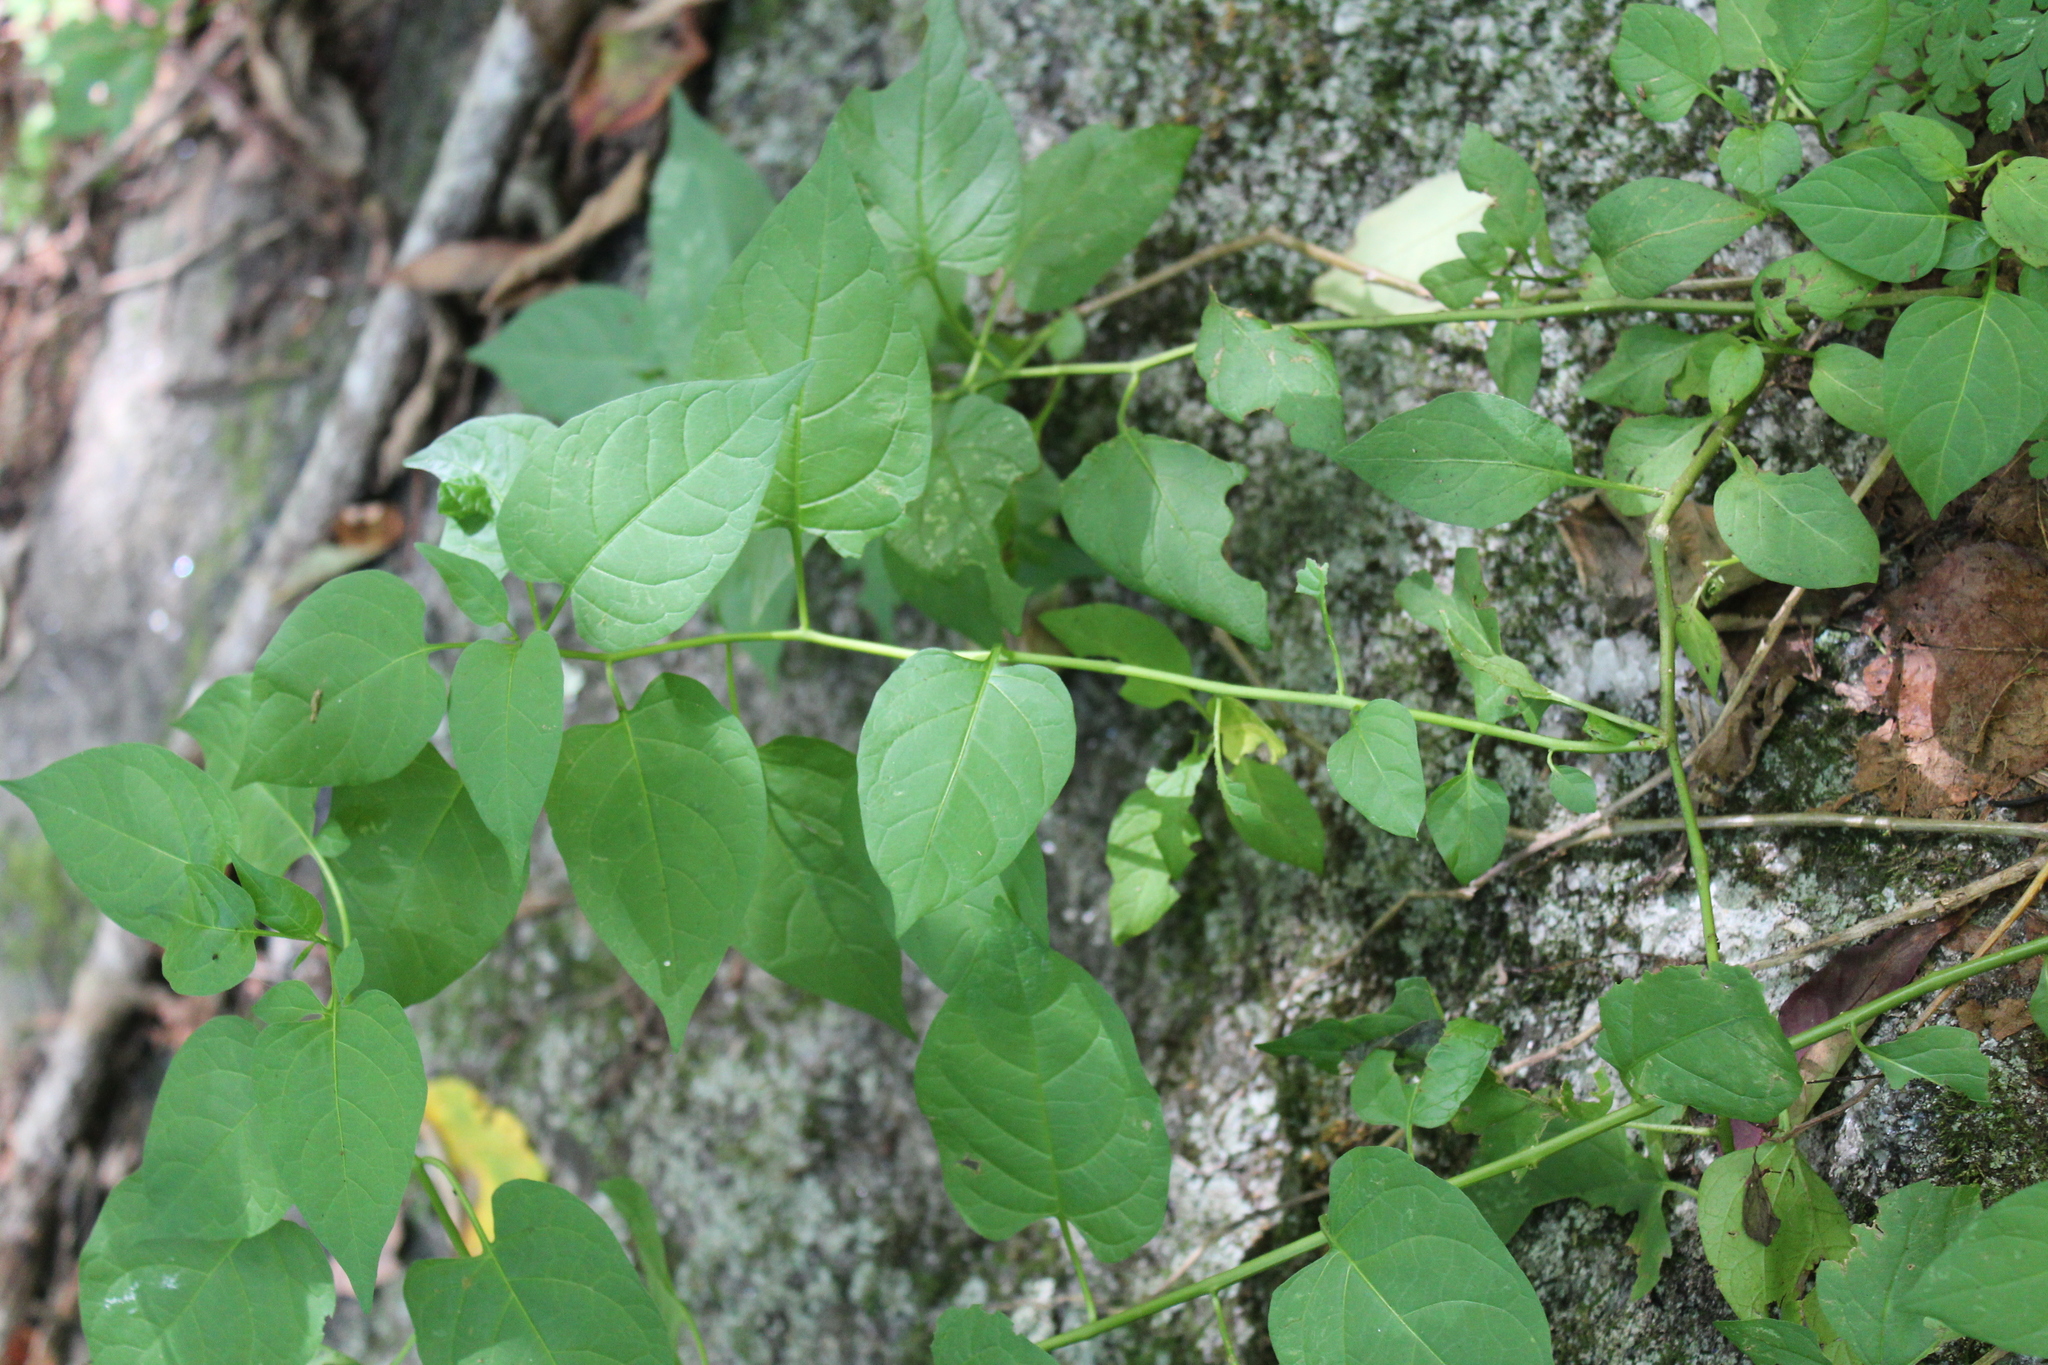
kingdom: Plantae
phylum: Tracheophyta
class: Magnoliopsida
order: Solanales
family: Solanaceae
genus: Solanum
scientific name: Solanum dulcamara
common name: Climbing nightshade
